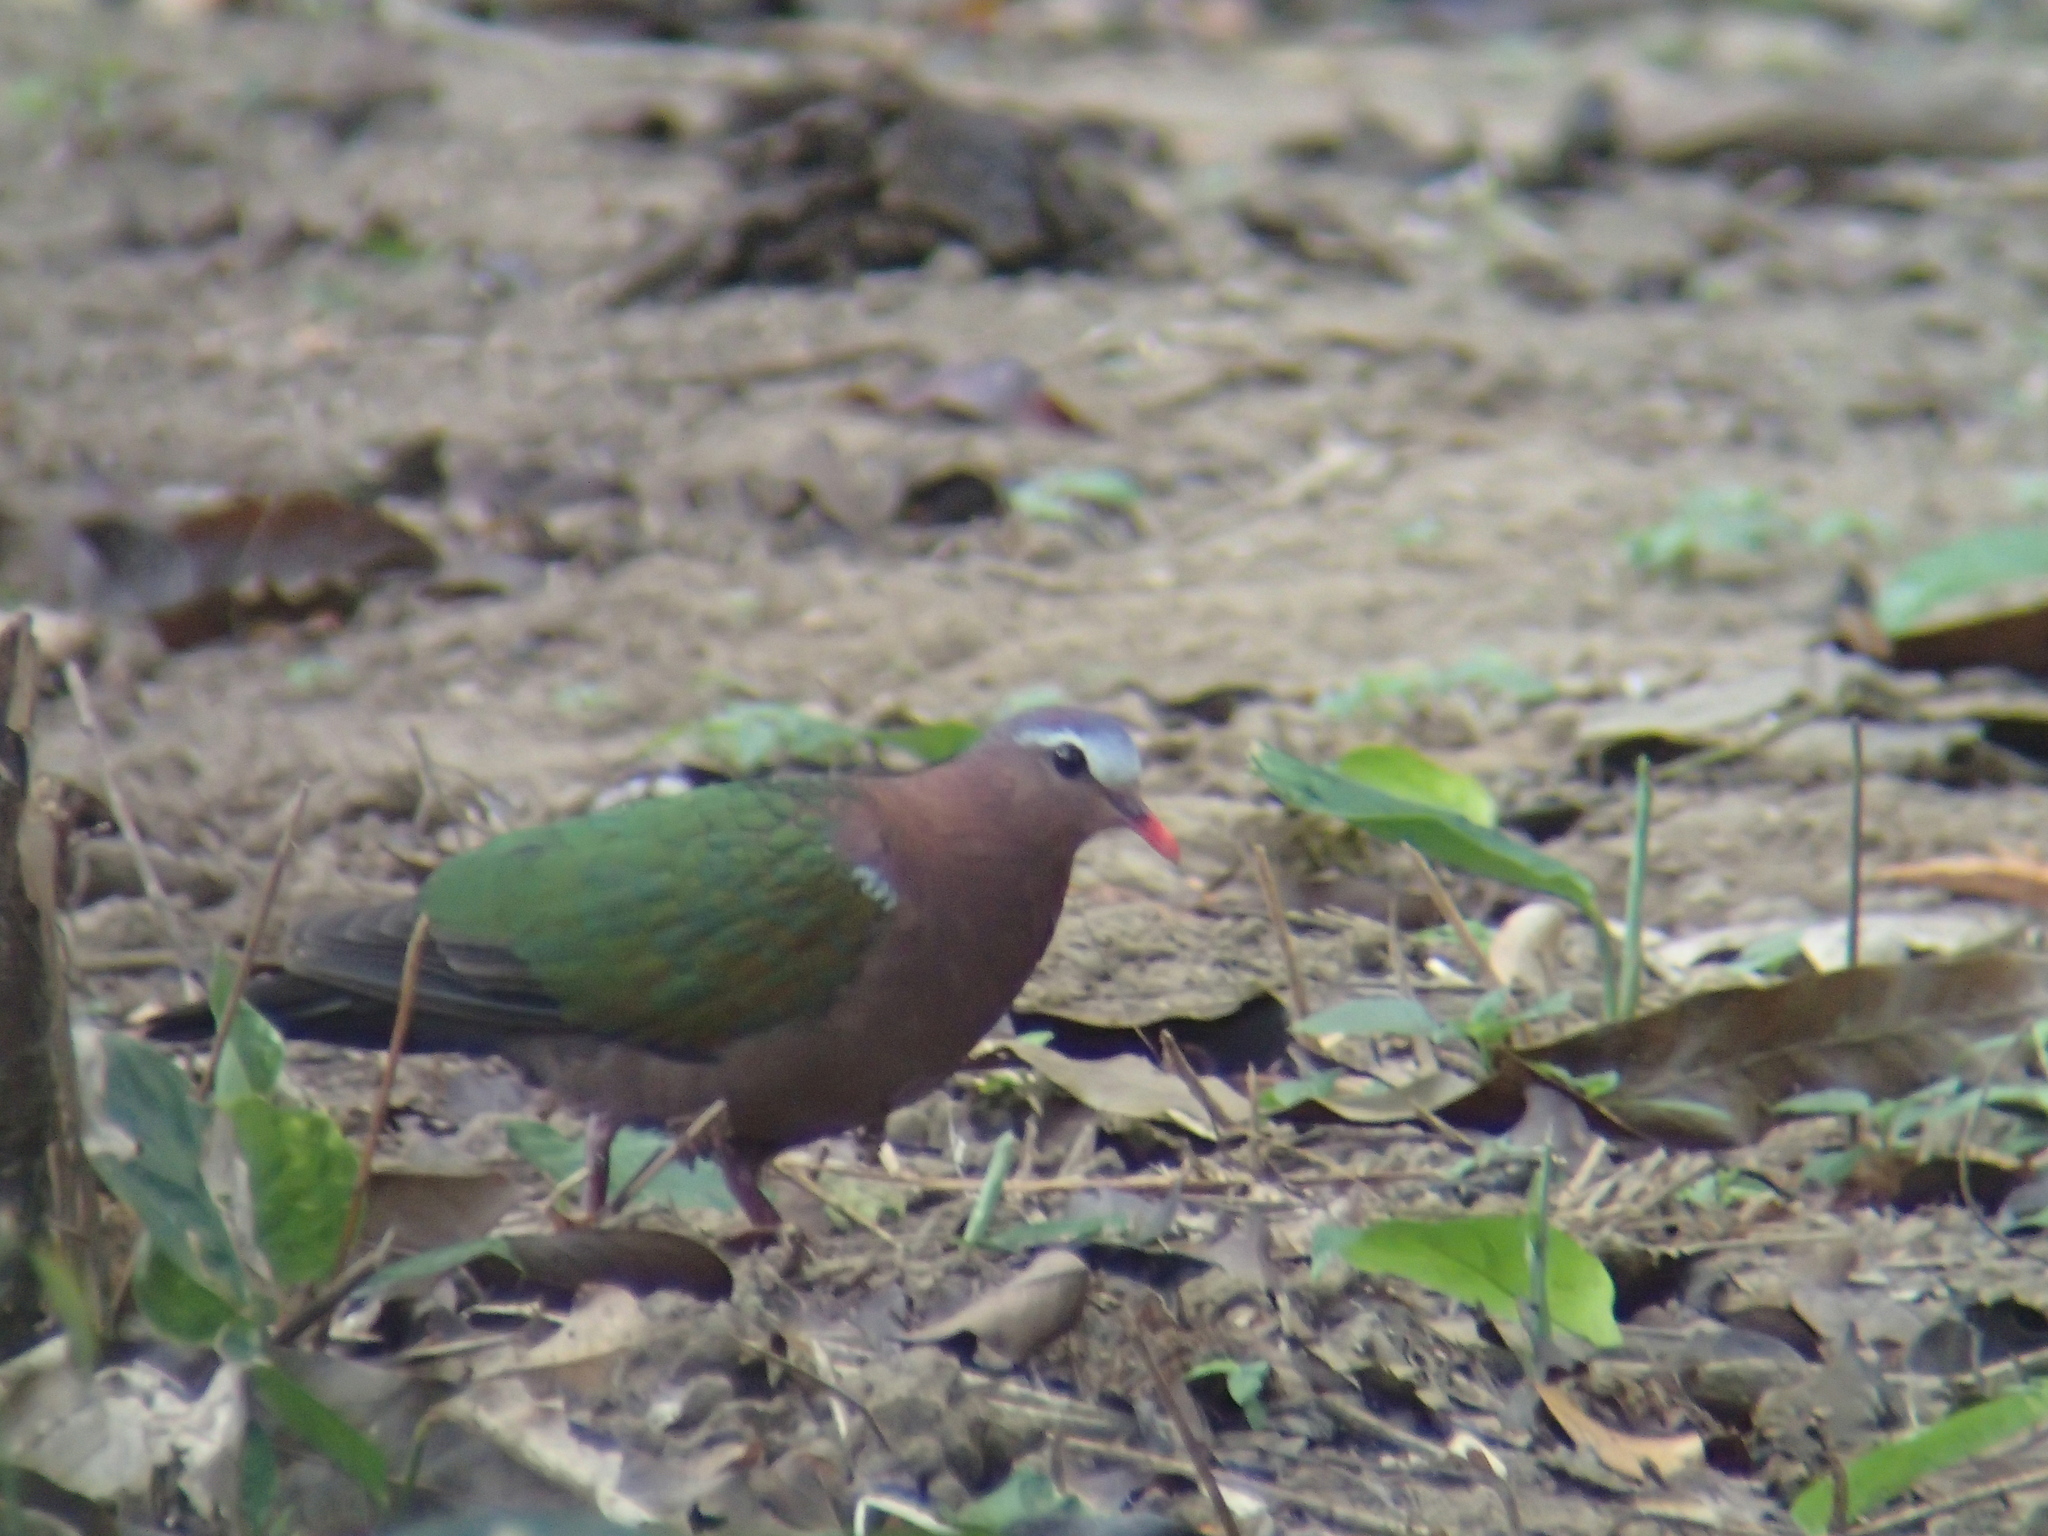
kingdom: Animalia
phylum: Chordata
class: Aves
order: Columbiformes
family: Columbidae
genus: Chalcophaps
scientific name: Chalcophaps indica
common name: Common emerald dove
